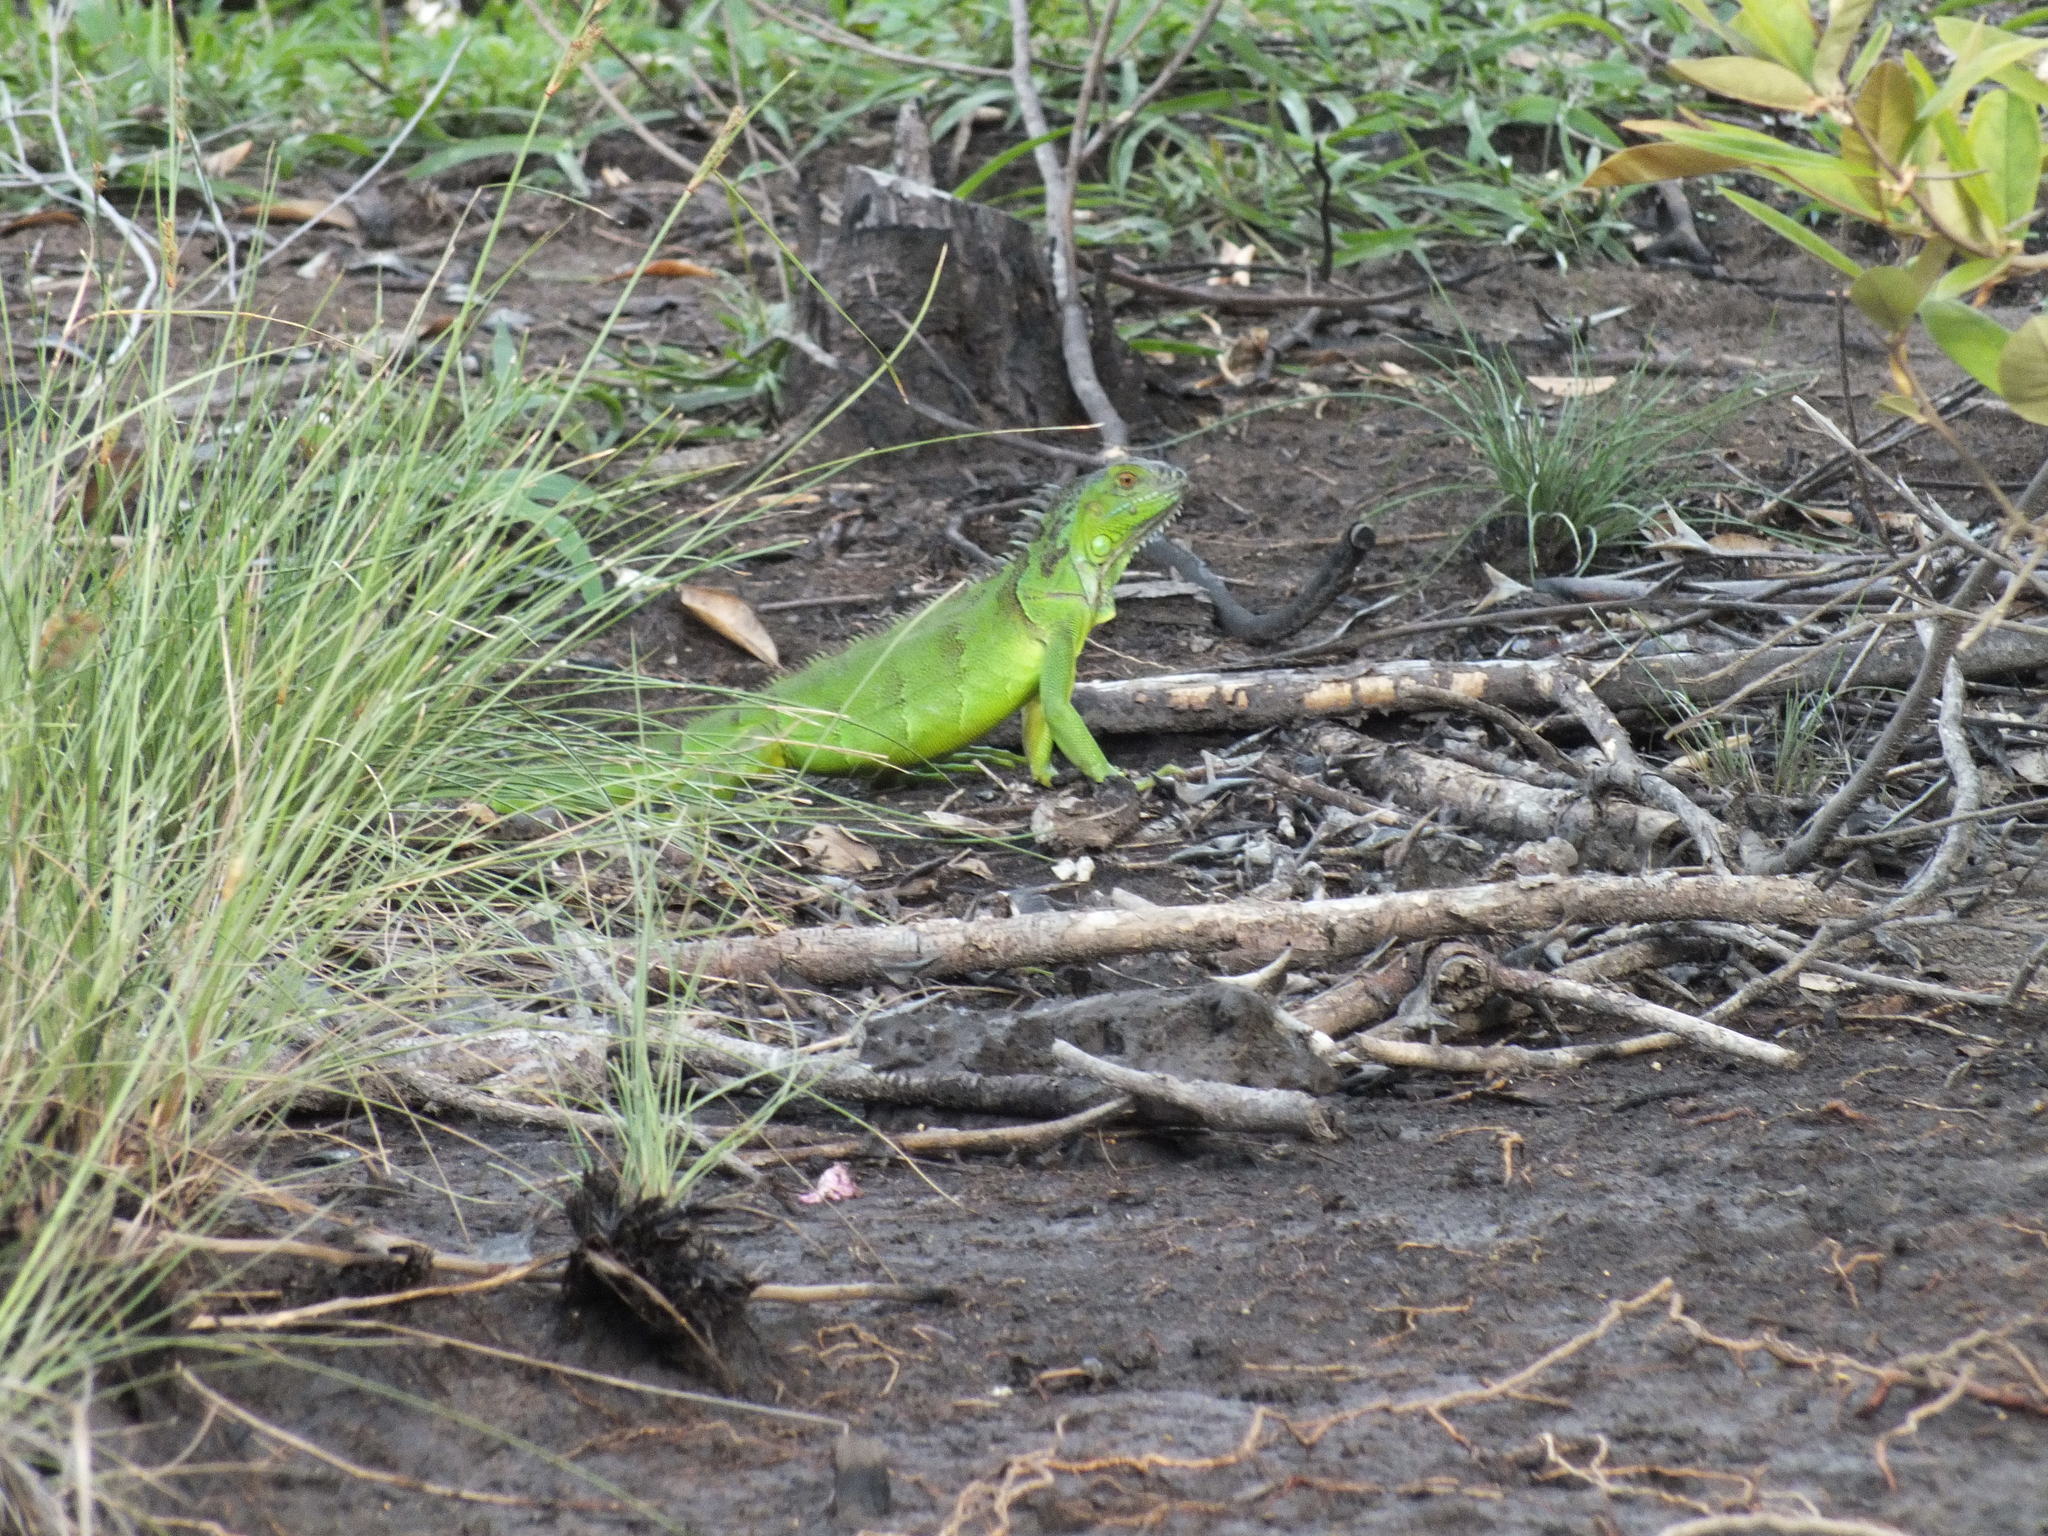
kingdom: Animalia
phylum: Chordata
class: Squamata
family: Iguanidae
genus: Iguana
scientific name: Iguana iguana
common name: Green iguana
